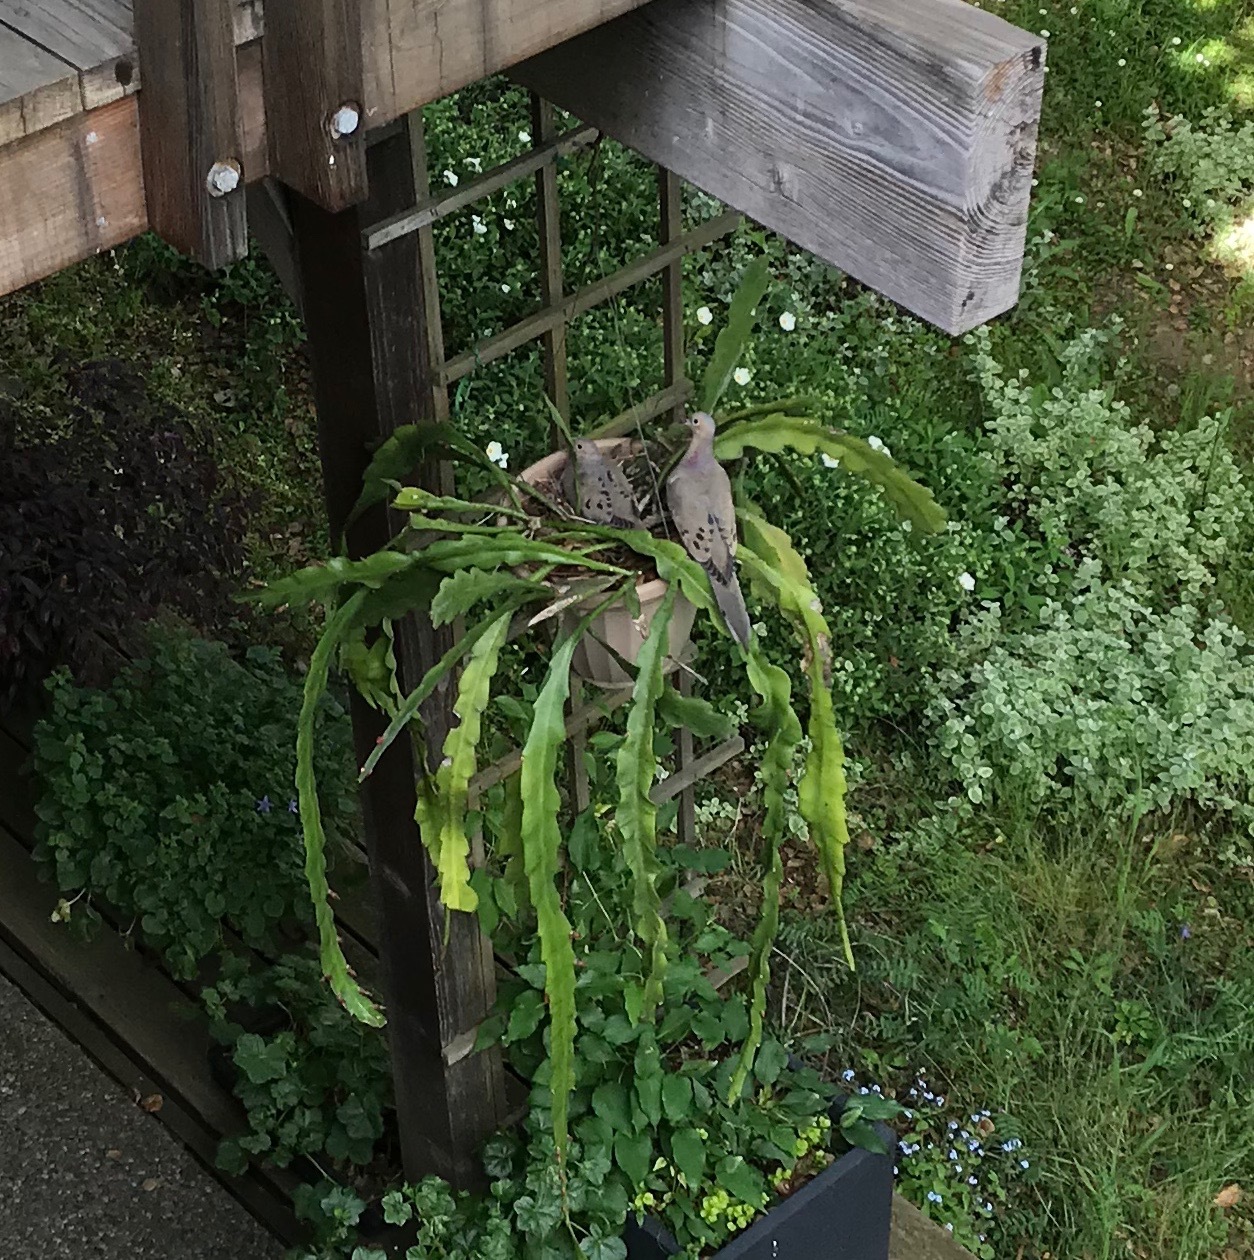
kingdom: Animalia
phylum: Chordata
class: Aves
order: Columbiformes
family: Columbidae
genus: Zenaida
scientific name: Zenaida macroura
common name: Mourning dove
